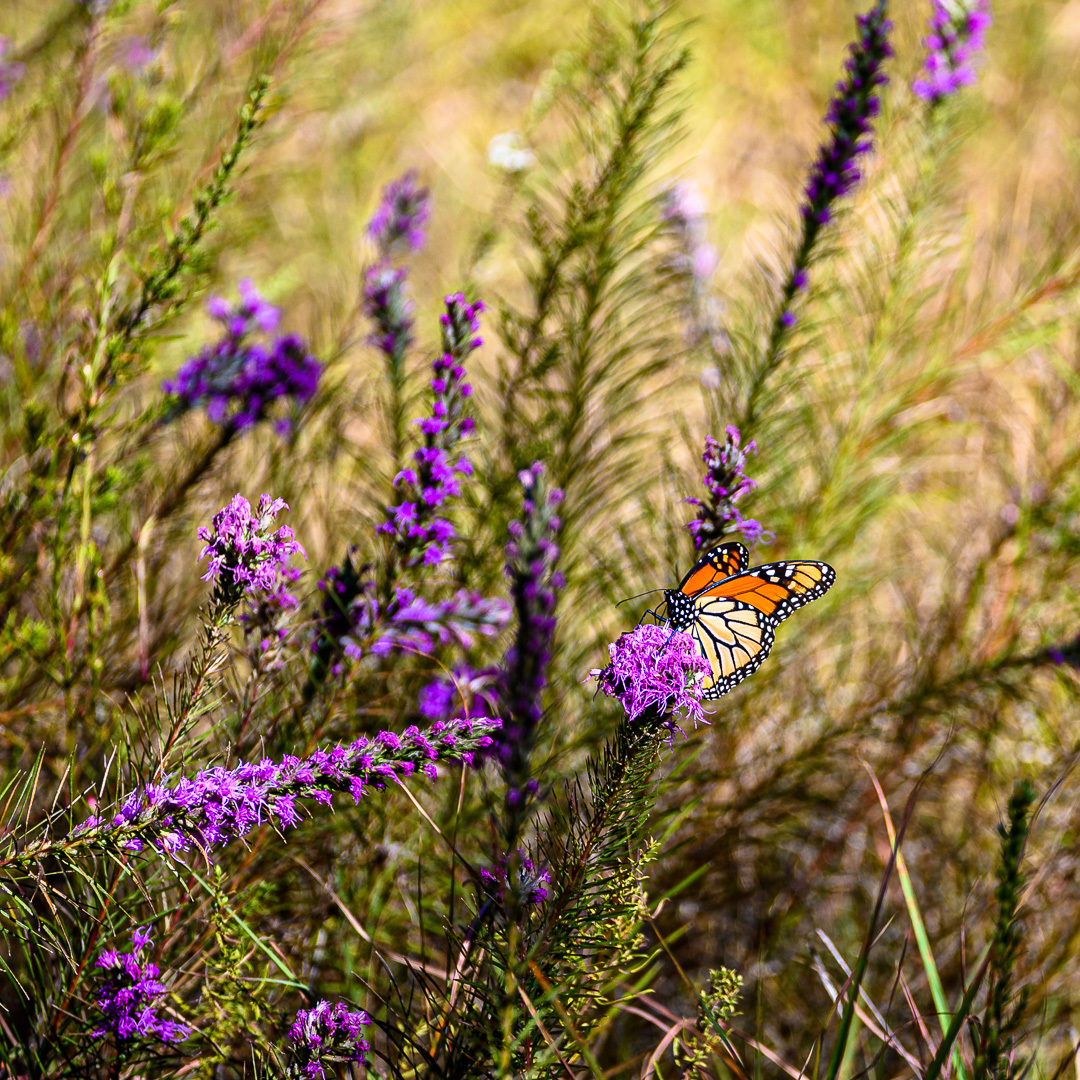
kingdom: Animalia
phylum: Arthropoda
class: Insecta
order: Lepidoptera
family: Nymphalidae
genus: Danaus
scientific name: Danaus plexippus
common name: Monarch
